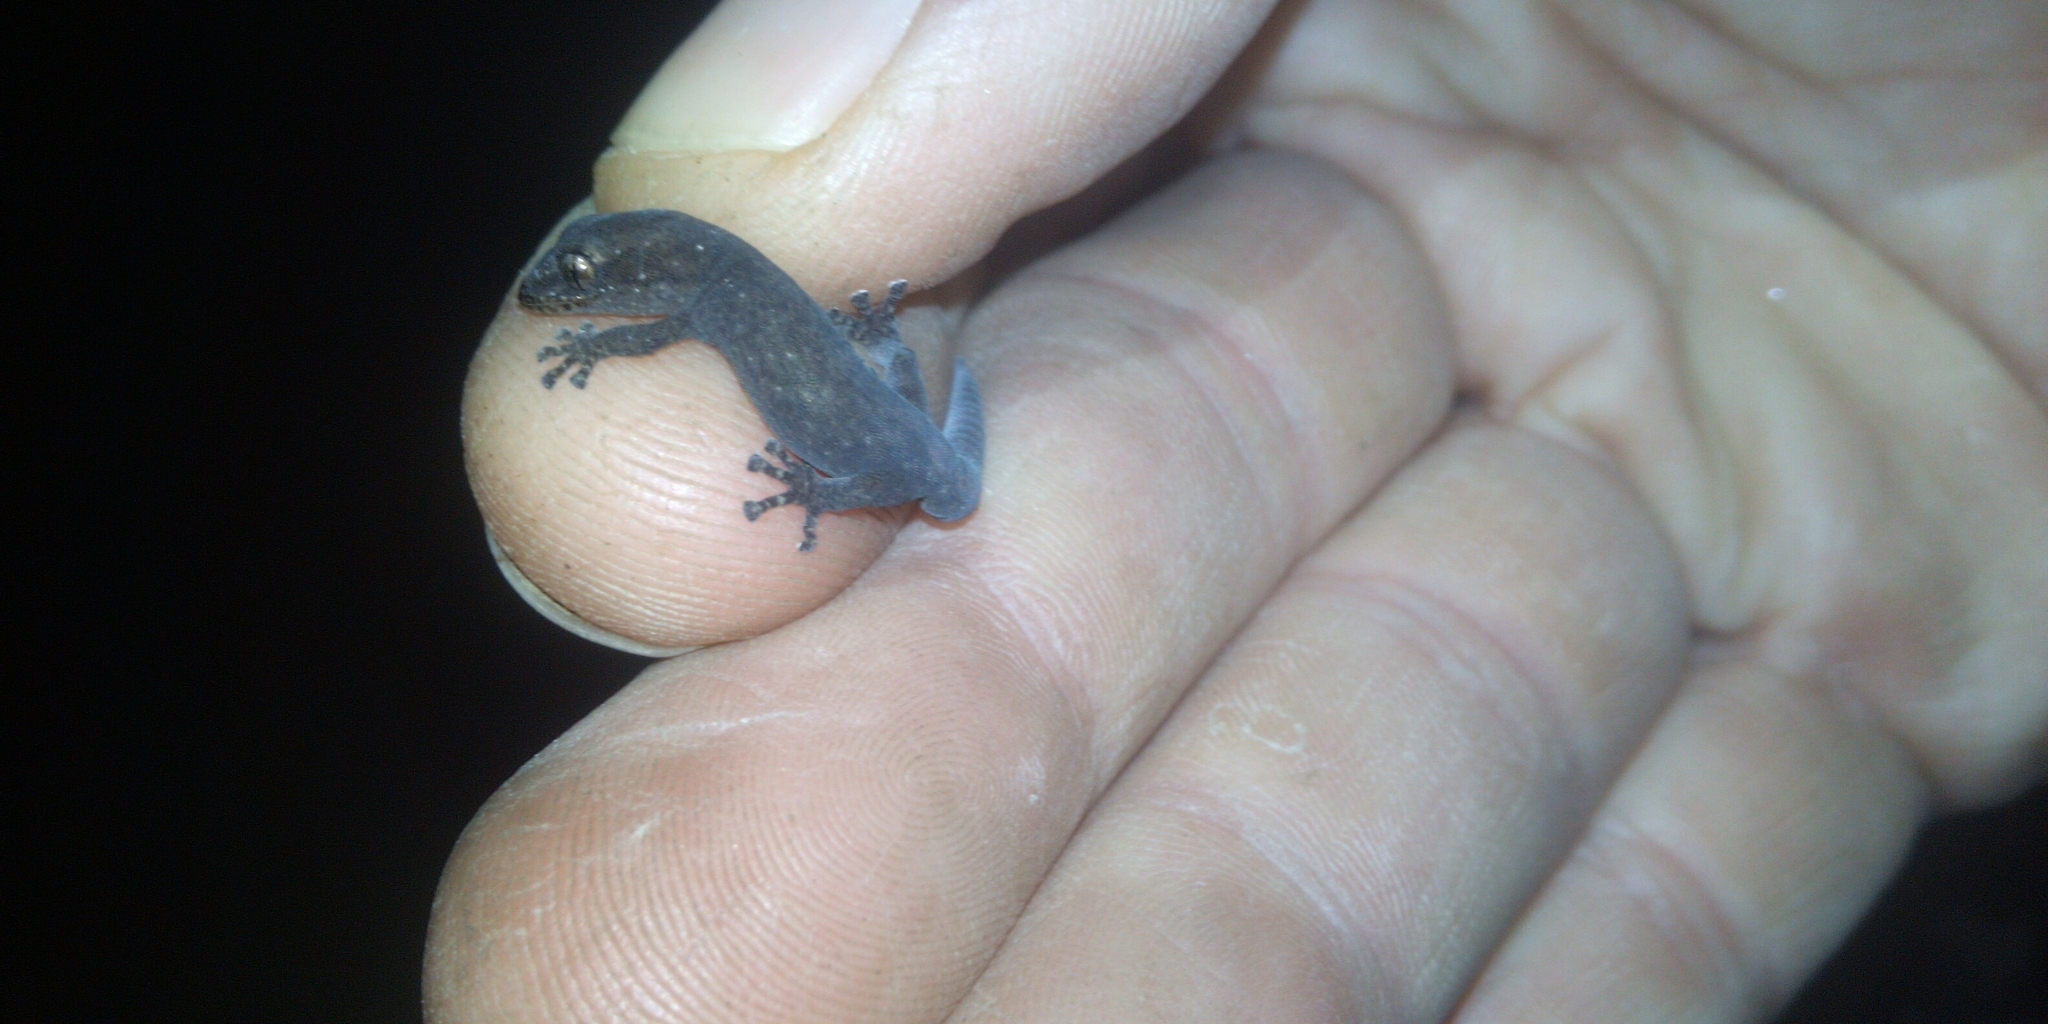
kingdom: Animalia
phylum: Chordata
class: Squamata
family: Gekkonidae
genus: Afrogecko
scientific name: Afrogecko porphyreus
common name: Marbled leaf-toed gecko
